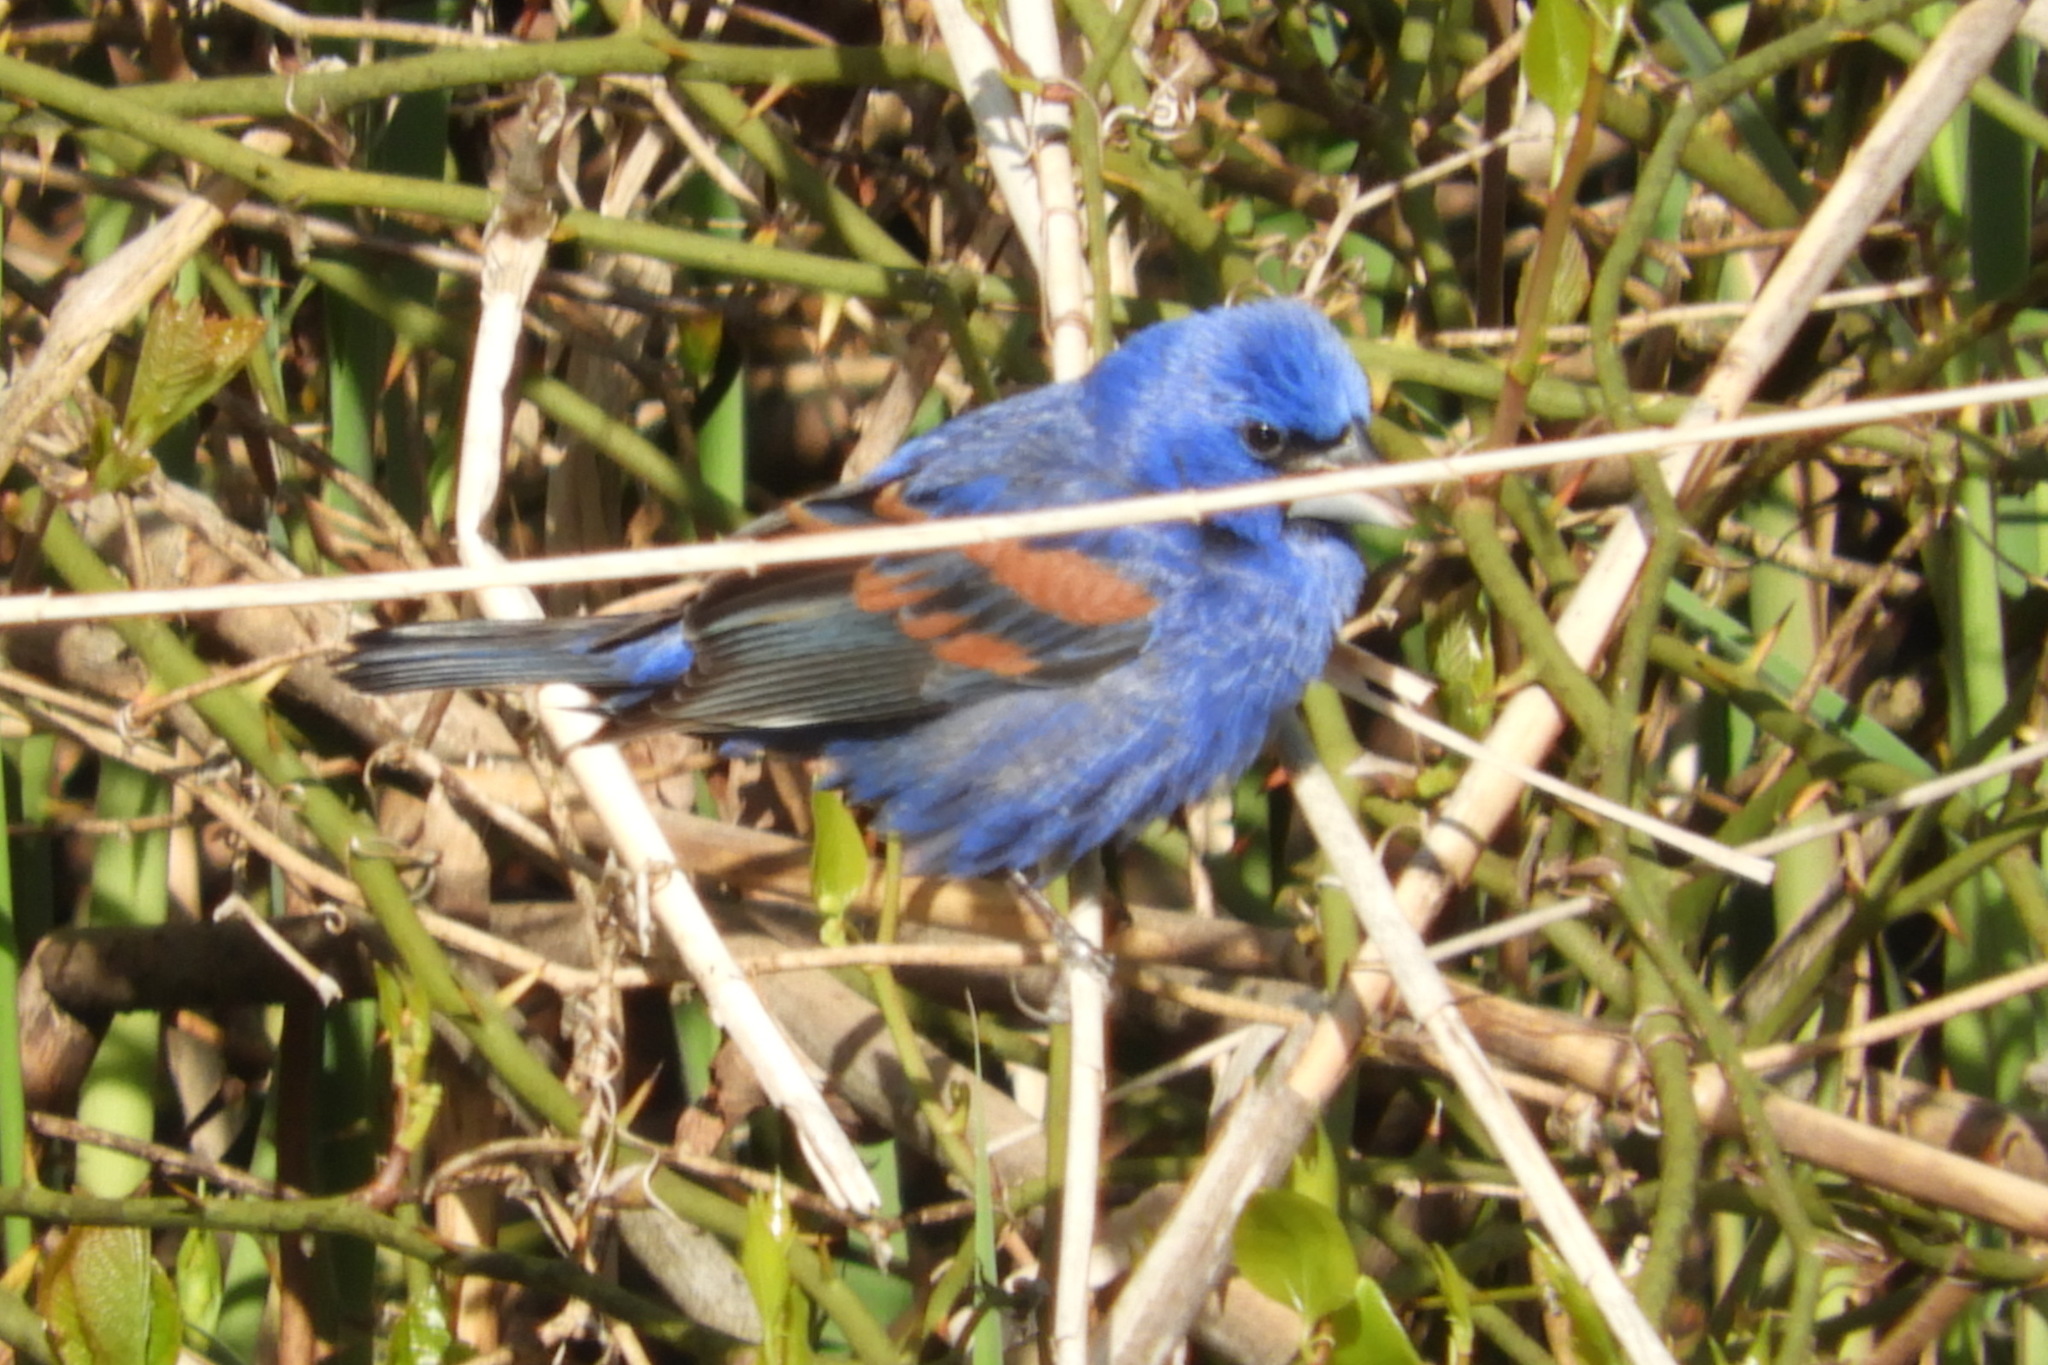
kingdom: Animalia
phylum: Chordata
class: Aves
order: Passeriformes
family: Cardinalidae
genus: Passerina
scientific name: Passerina caerulea
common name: Blue grosbeak
